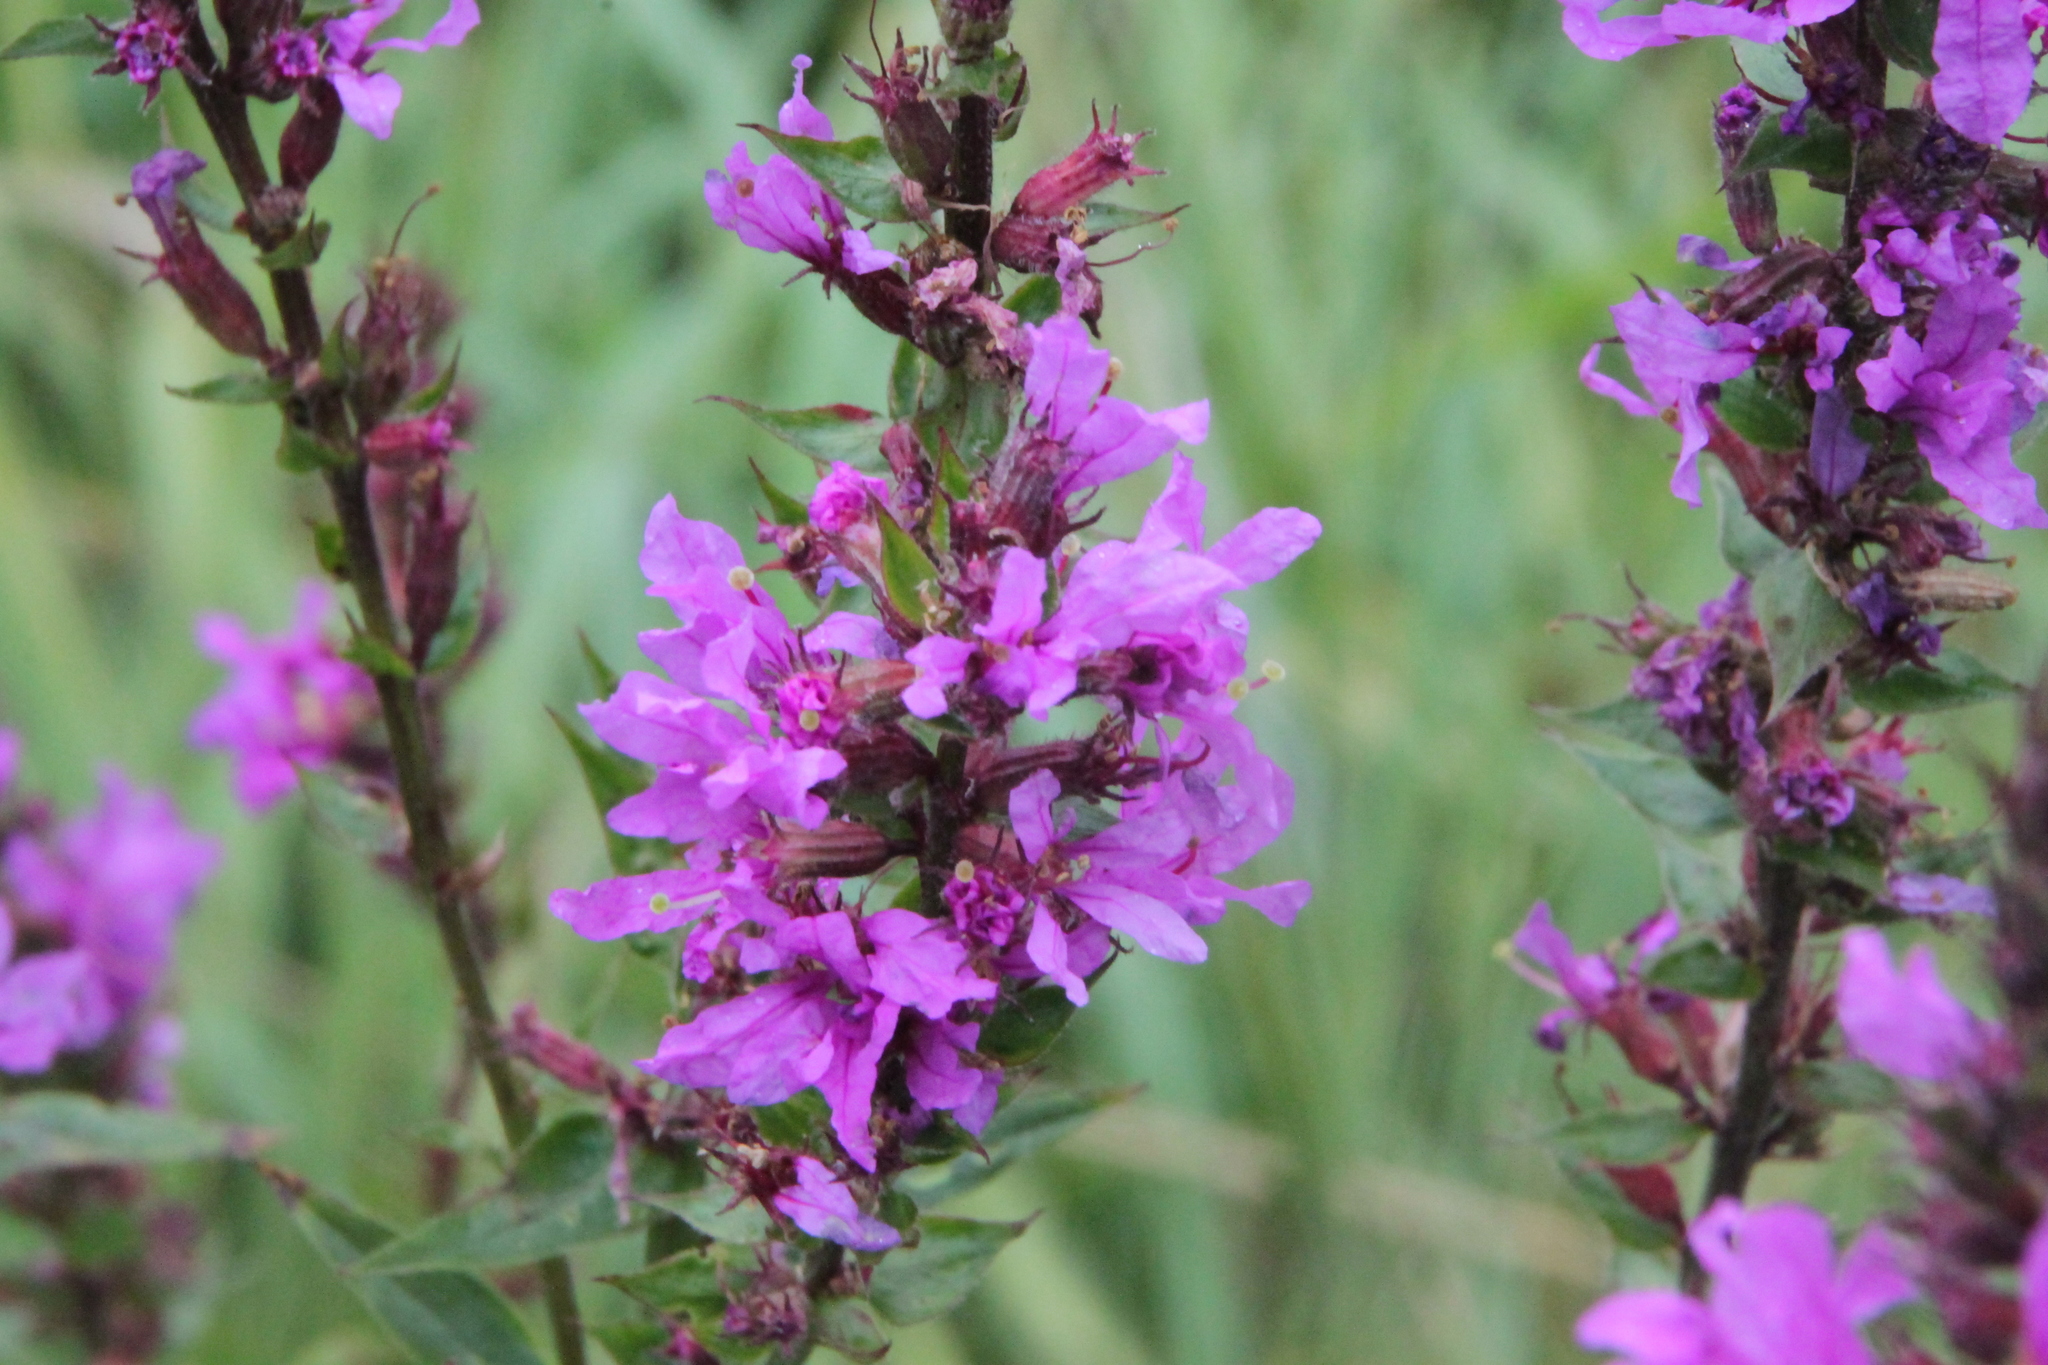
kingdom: Plantae
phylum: Tracheophyta
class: Magnoliopsida
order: Myrtales
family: Lythraceae
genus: Lythrum
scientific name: Lythrum salicaria
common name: Purple loosestrife
